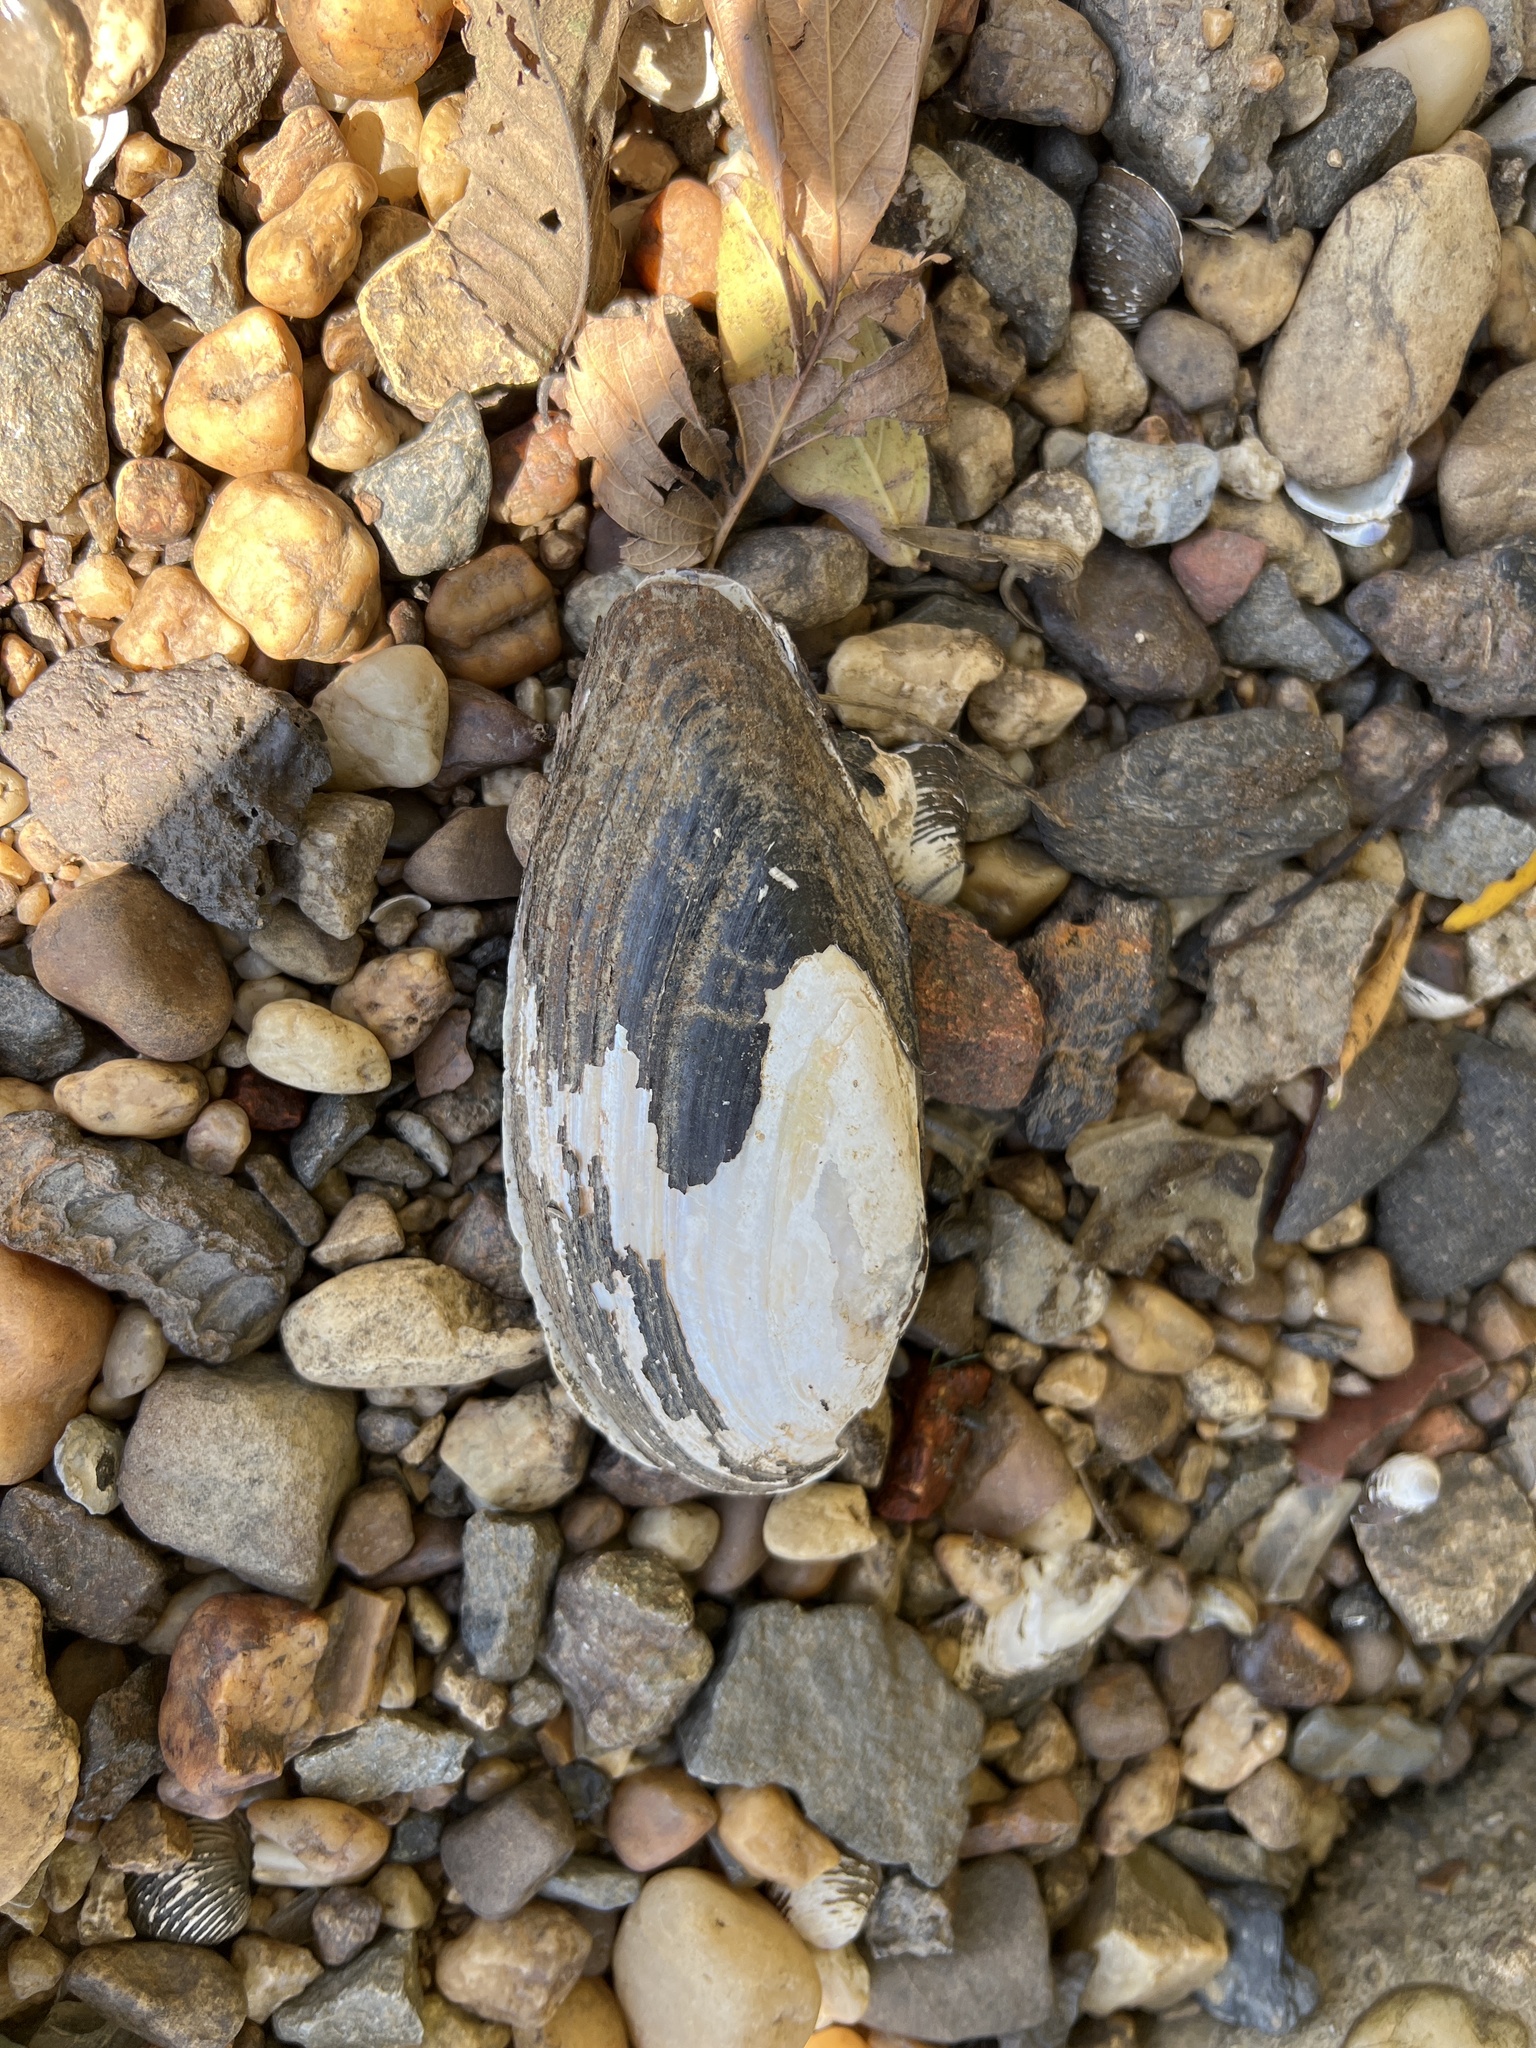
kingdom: Animalia
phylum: Mollusca
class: Bivalvia
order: Unionida
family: Unionidae
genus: Sagittunio
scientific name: Sagittunio nasutus
